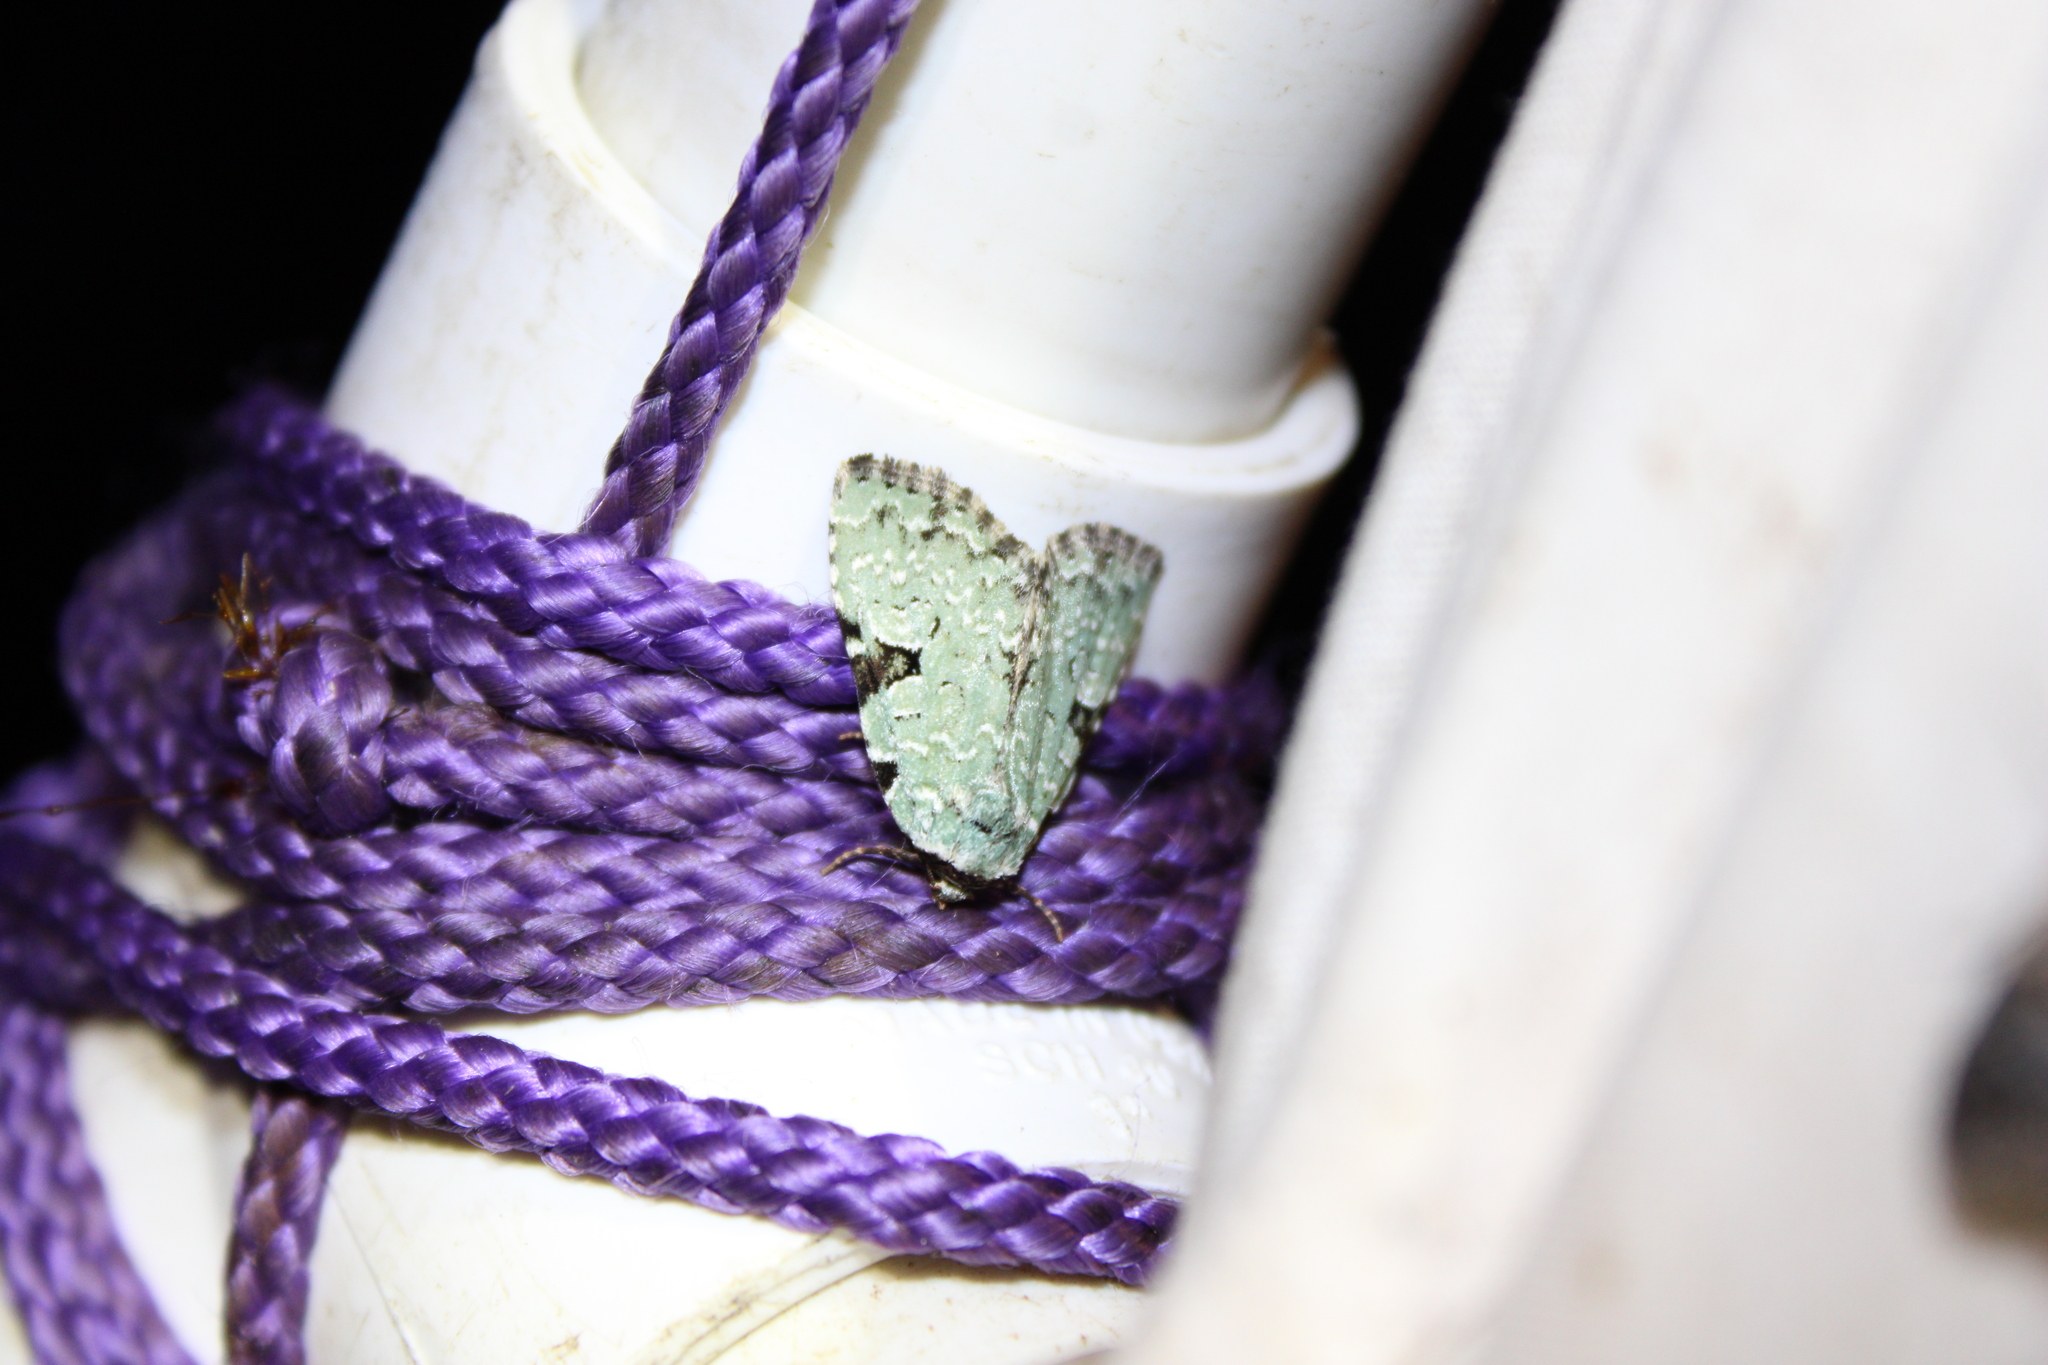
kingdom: Animalia
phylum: Arthropoda
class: Insecta
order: Lepidoptera
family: Noctuidae
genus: Leuconycta
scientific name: Leuconycta diphteroides
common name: Green leuconycta moth
